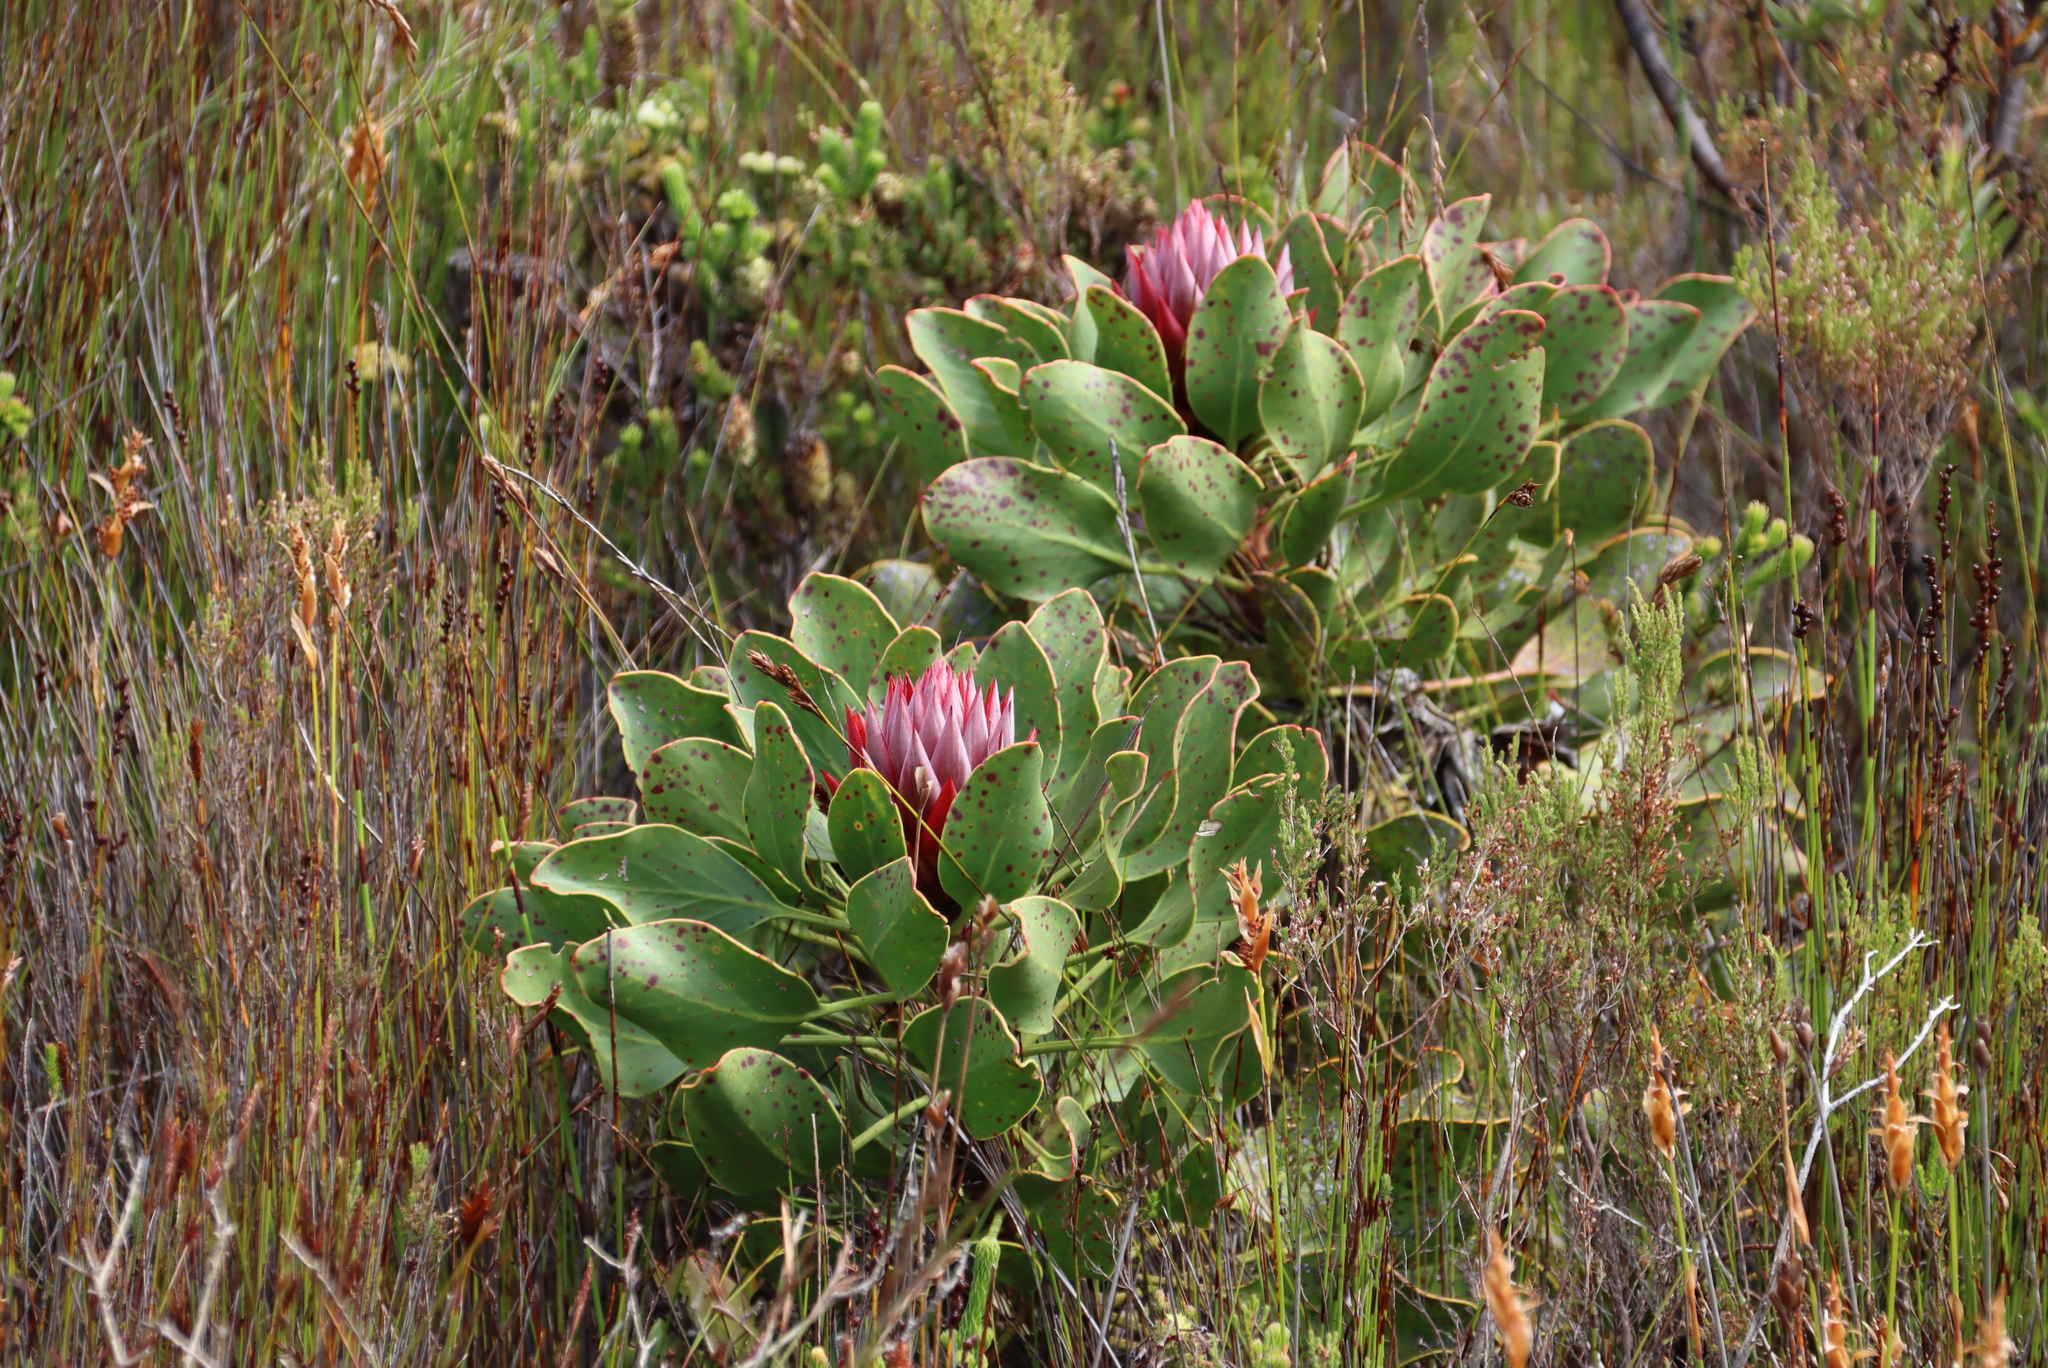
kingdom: Plantae
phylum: Tracheophyta
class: Magnoliopsida
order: Proteales
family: Proteaceae
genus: Protea
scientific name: Protea cynaroides
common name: King protea
